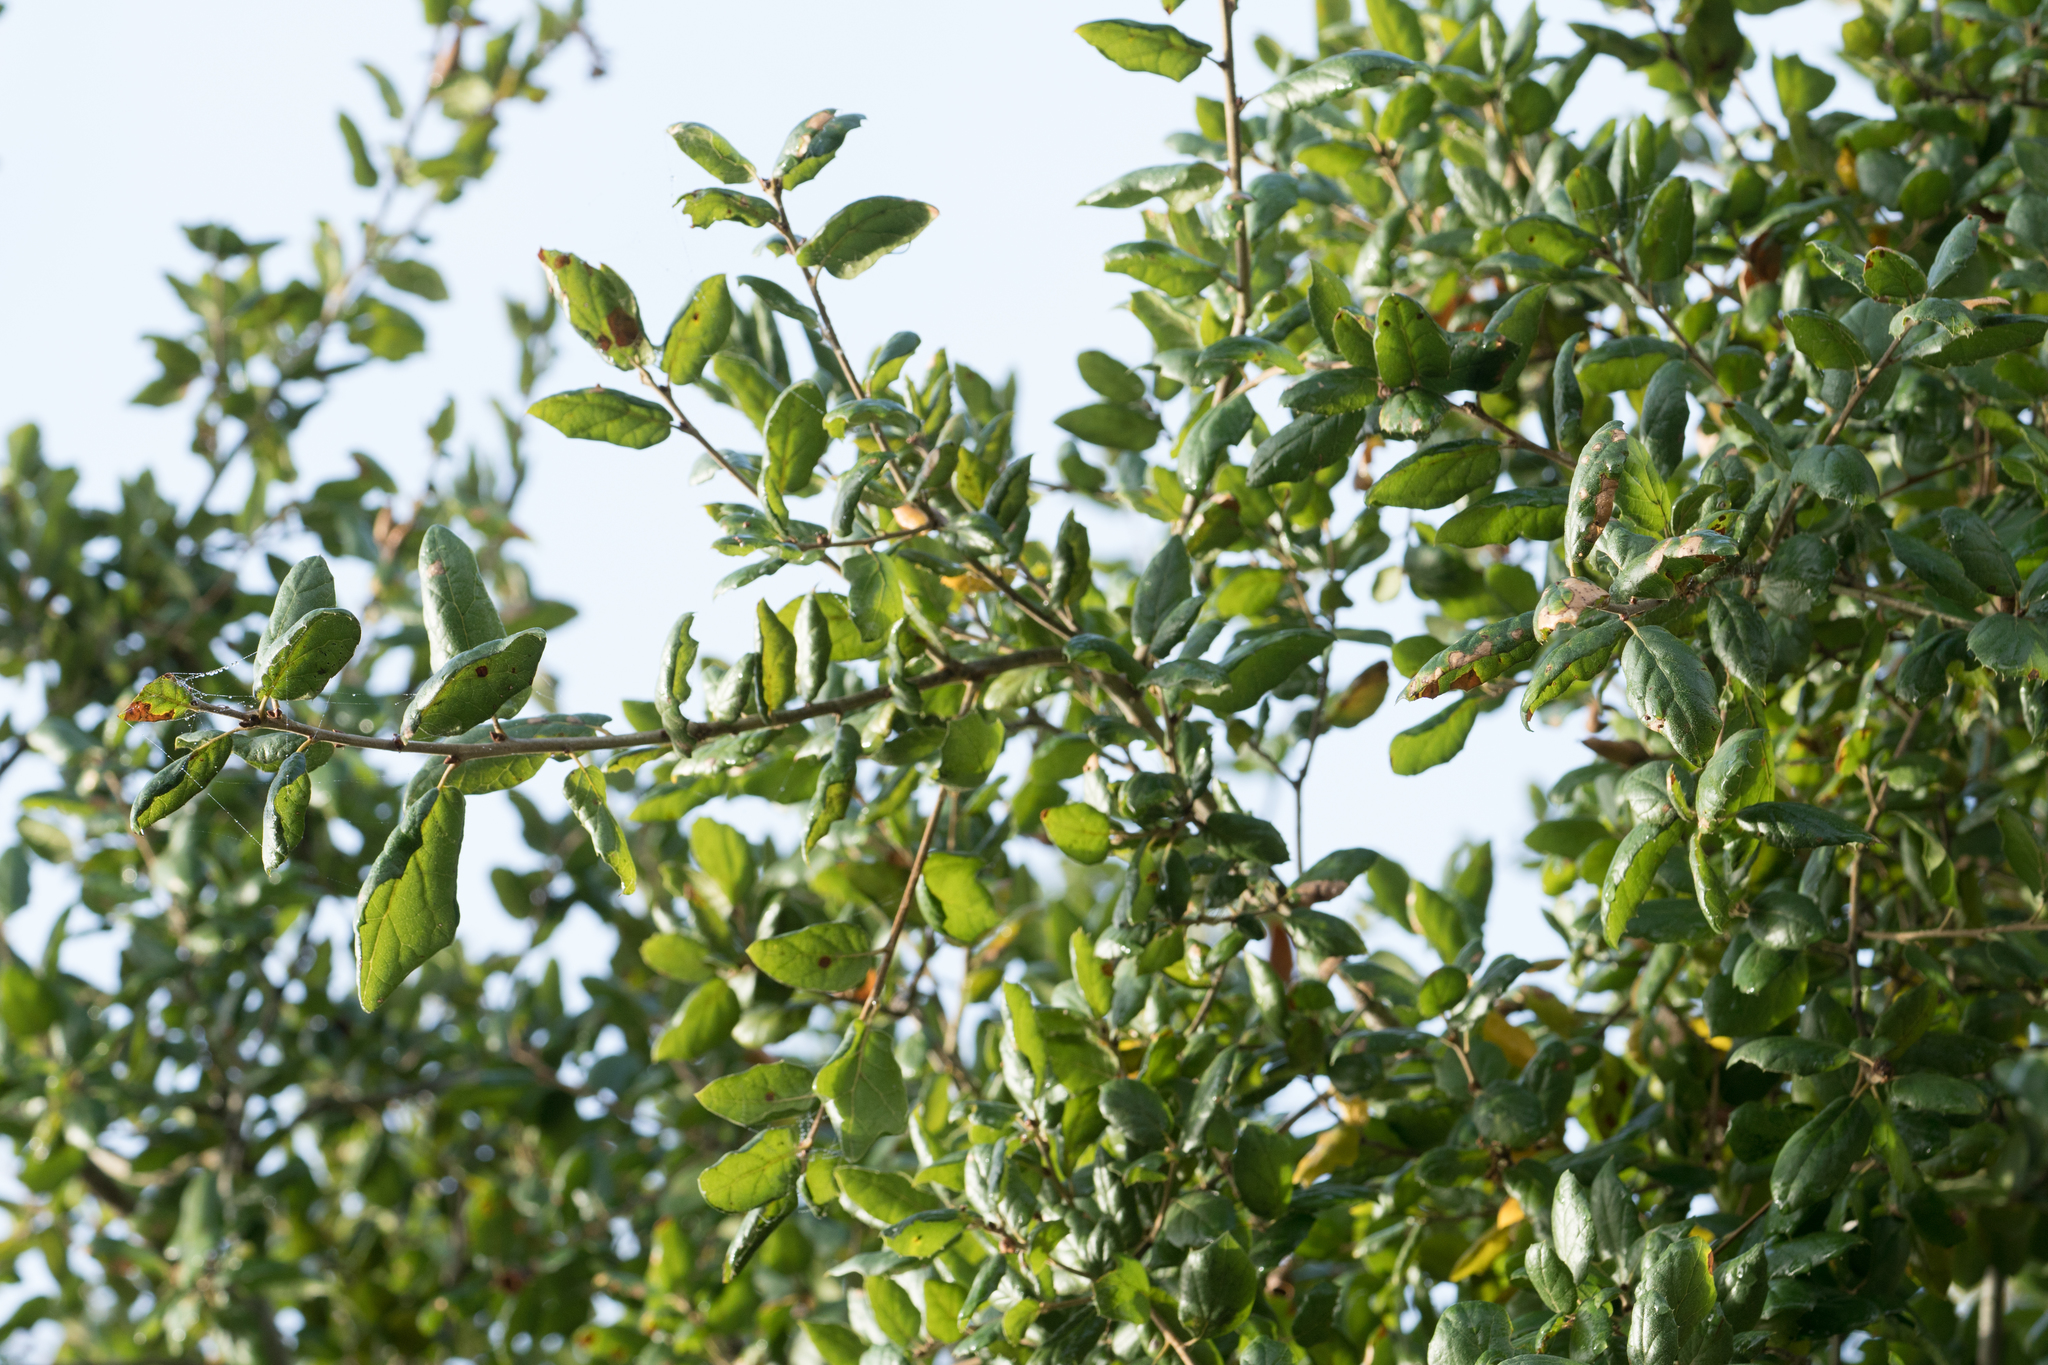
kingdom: Plantae
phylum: Tracheophyta
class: Magnoliopsida
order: Fagales
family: Fagaceae
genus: Quercus
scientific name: Quercus agrifolia
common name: California live oak
